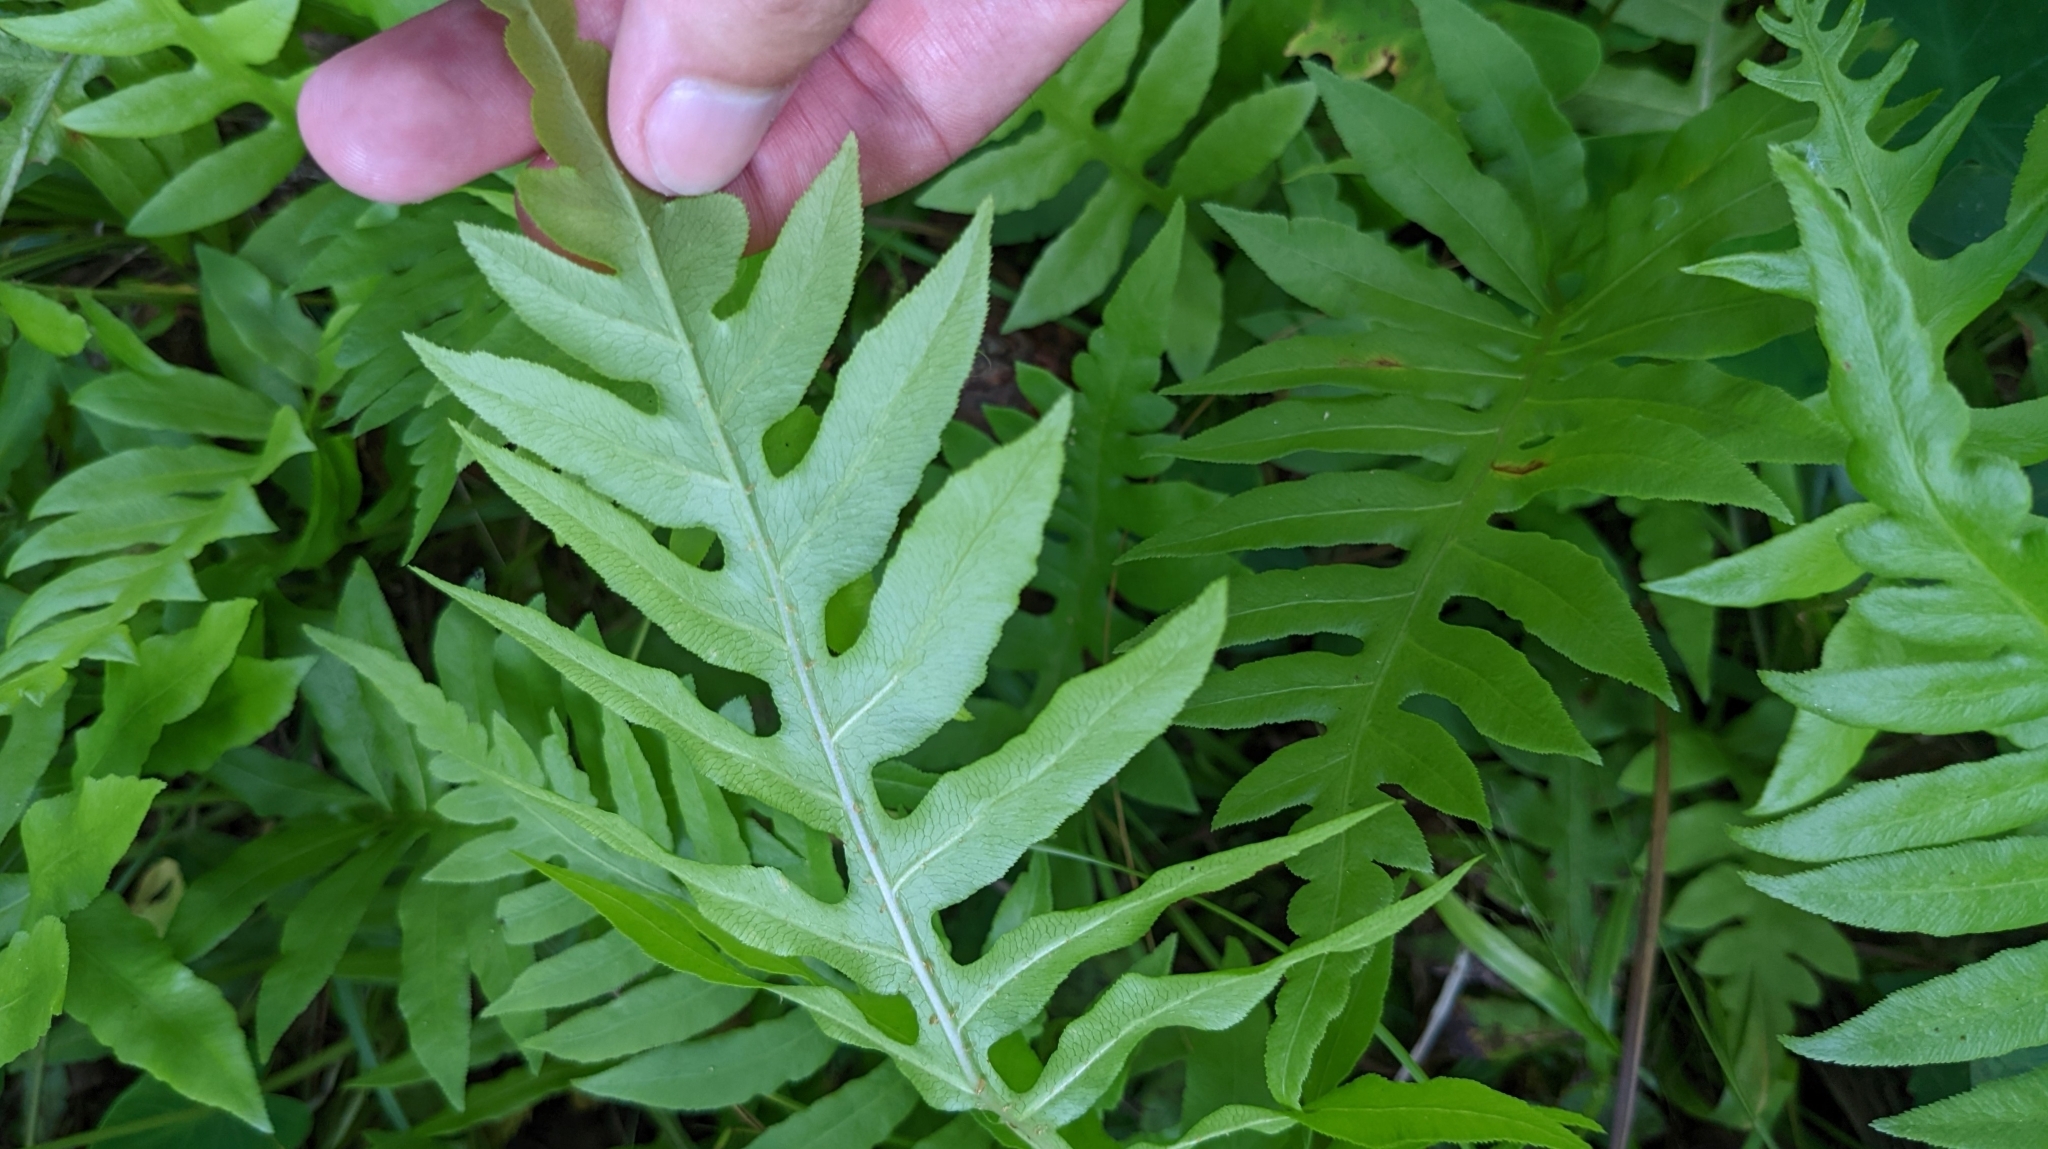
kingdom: Plantae
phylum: Tracheophyta
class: Polypodiopsida
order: Polypodiales
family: Blechnaceae
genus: Lorinseria
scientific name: Lorinseria areolata
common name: Dwarf chain fern
